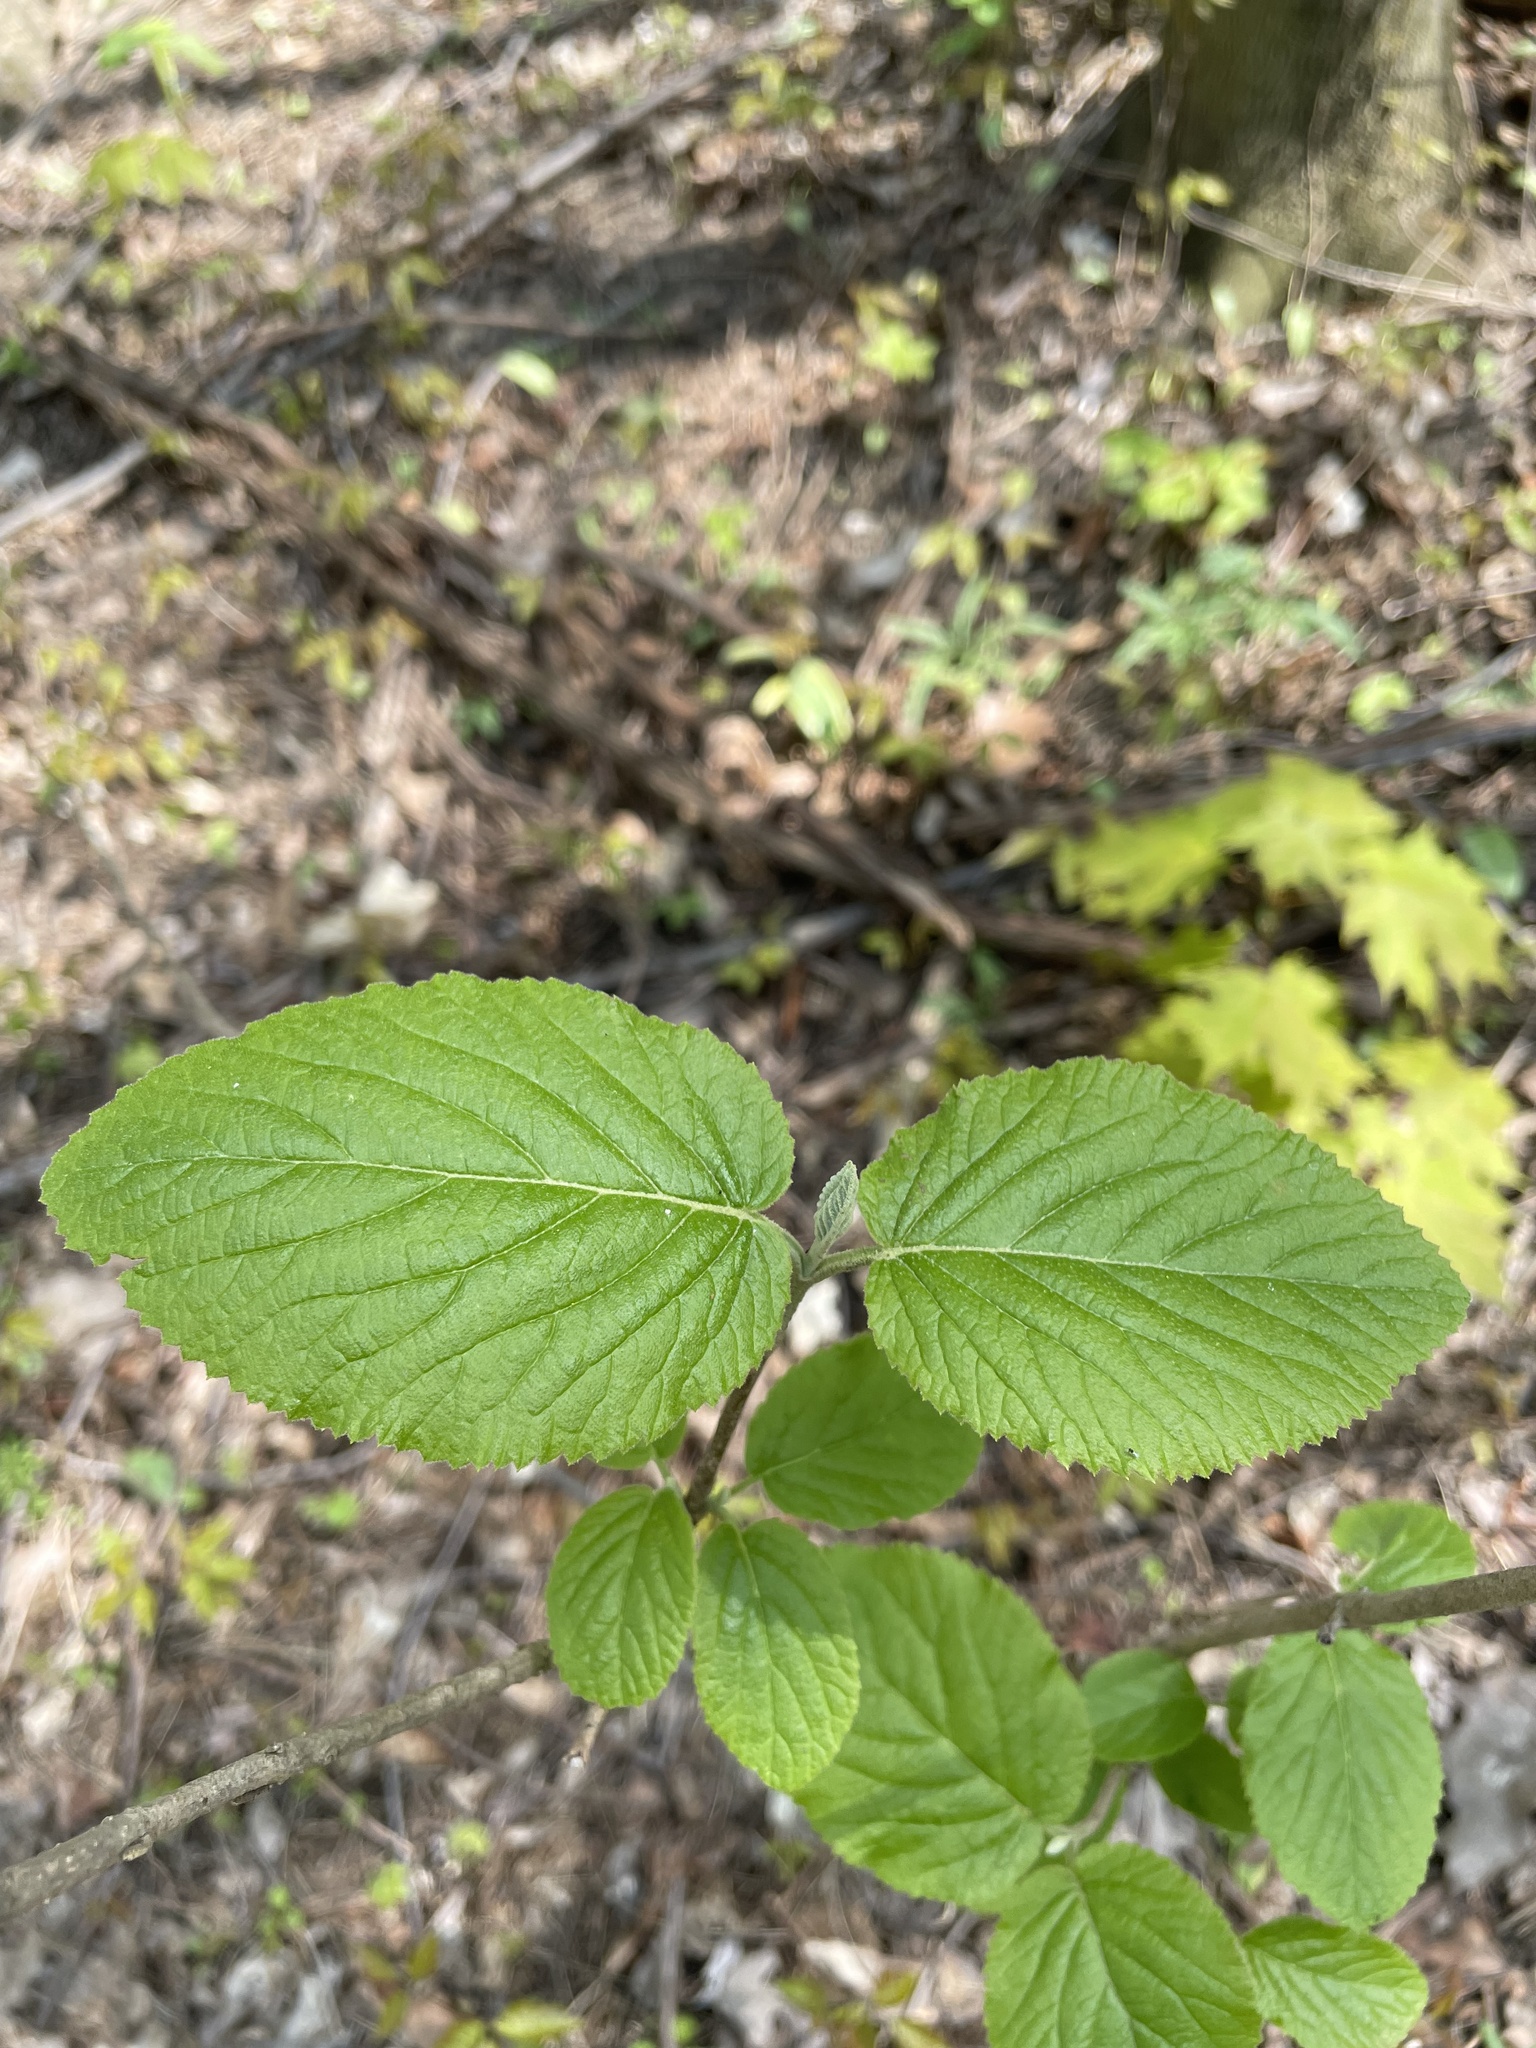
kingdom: Plantae
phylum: Tracheophyta
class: Magnoliopsida
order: Dipsacales
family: Viburnaceae
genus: Viburnum
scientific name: Viburnum lantana
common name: Wayfaring tree
